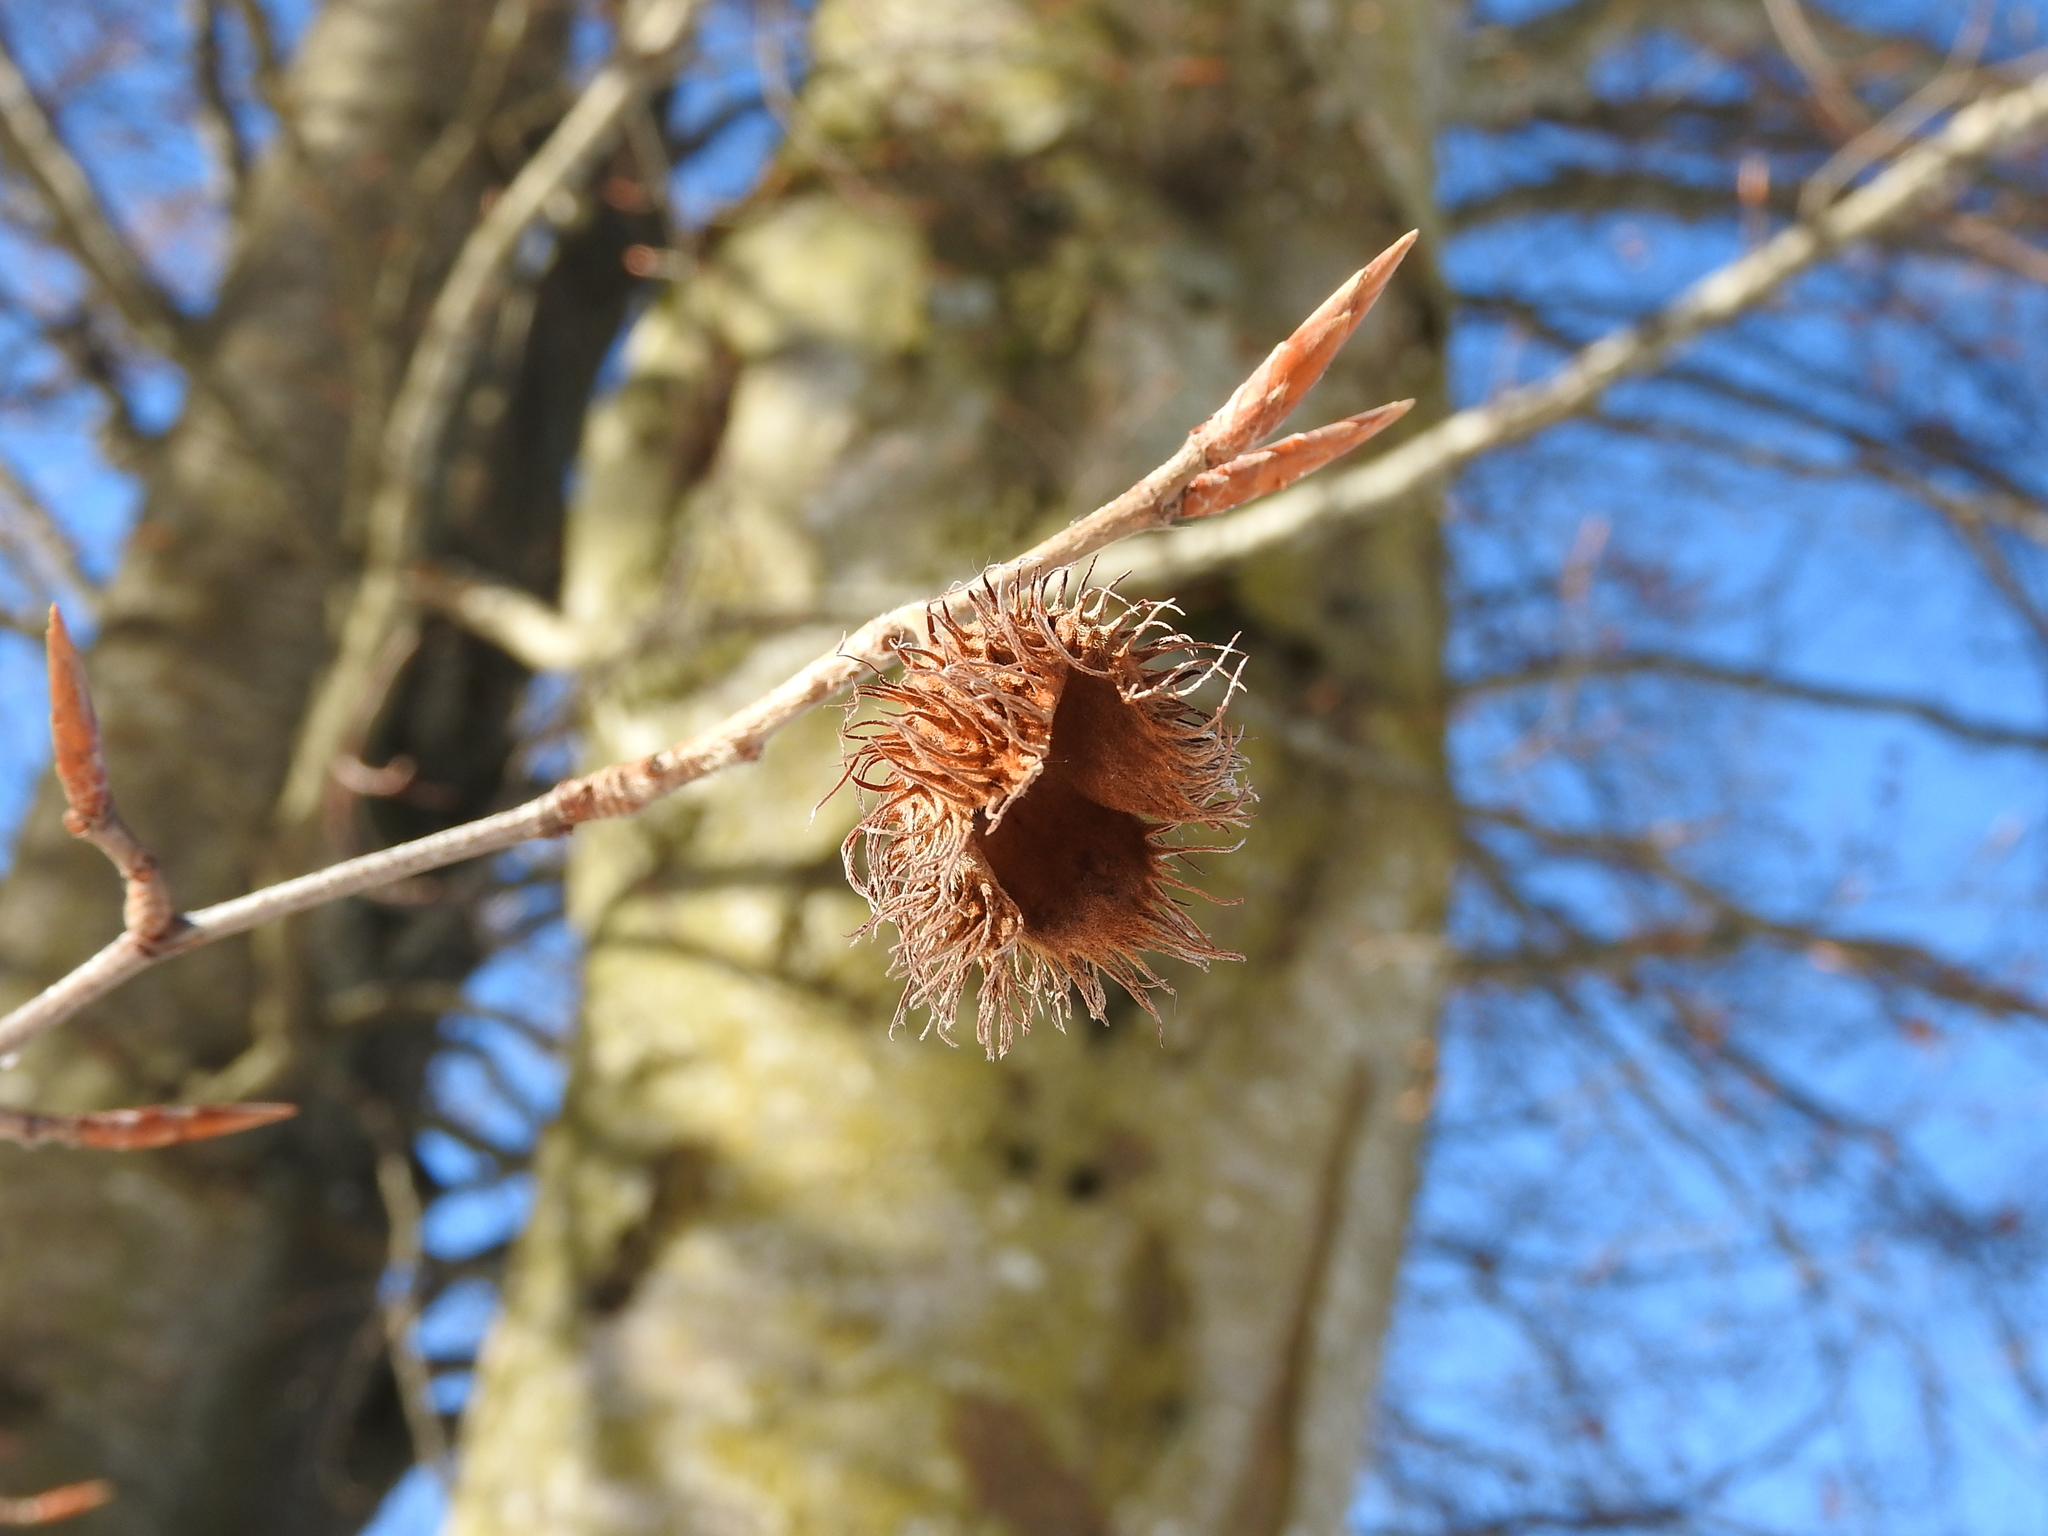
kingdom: Plantae
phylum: Tracheophyta
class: Magnoliopsida
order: Fagales
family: Fagaceae
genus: Fagus
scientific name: Fagus sylvatica
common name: Beech
